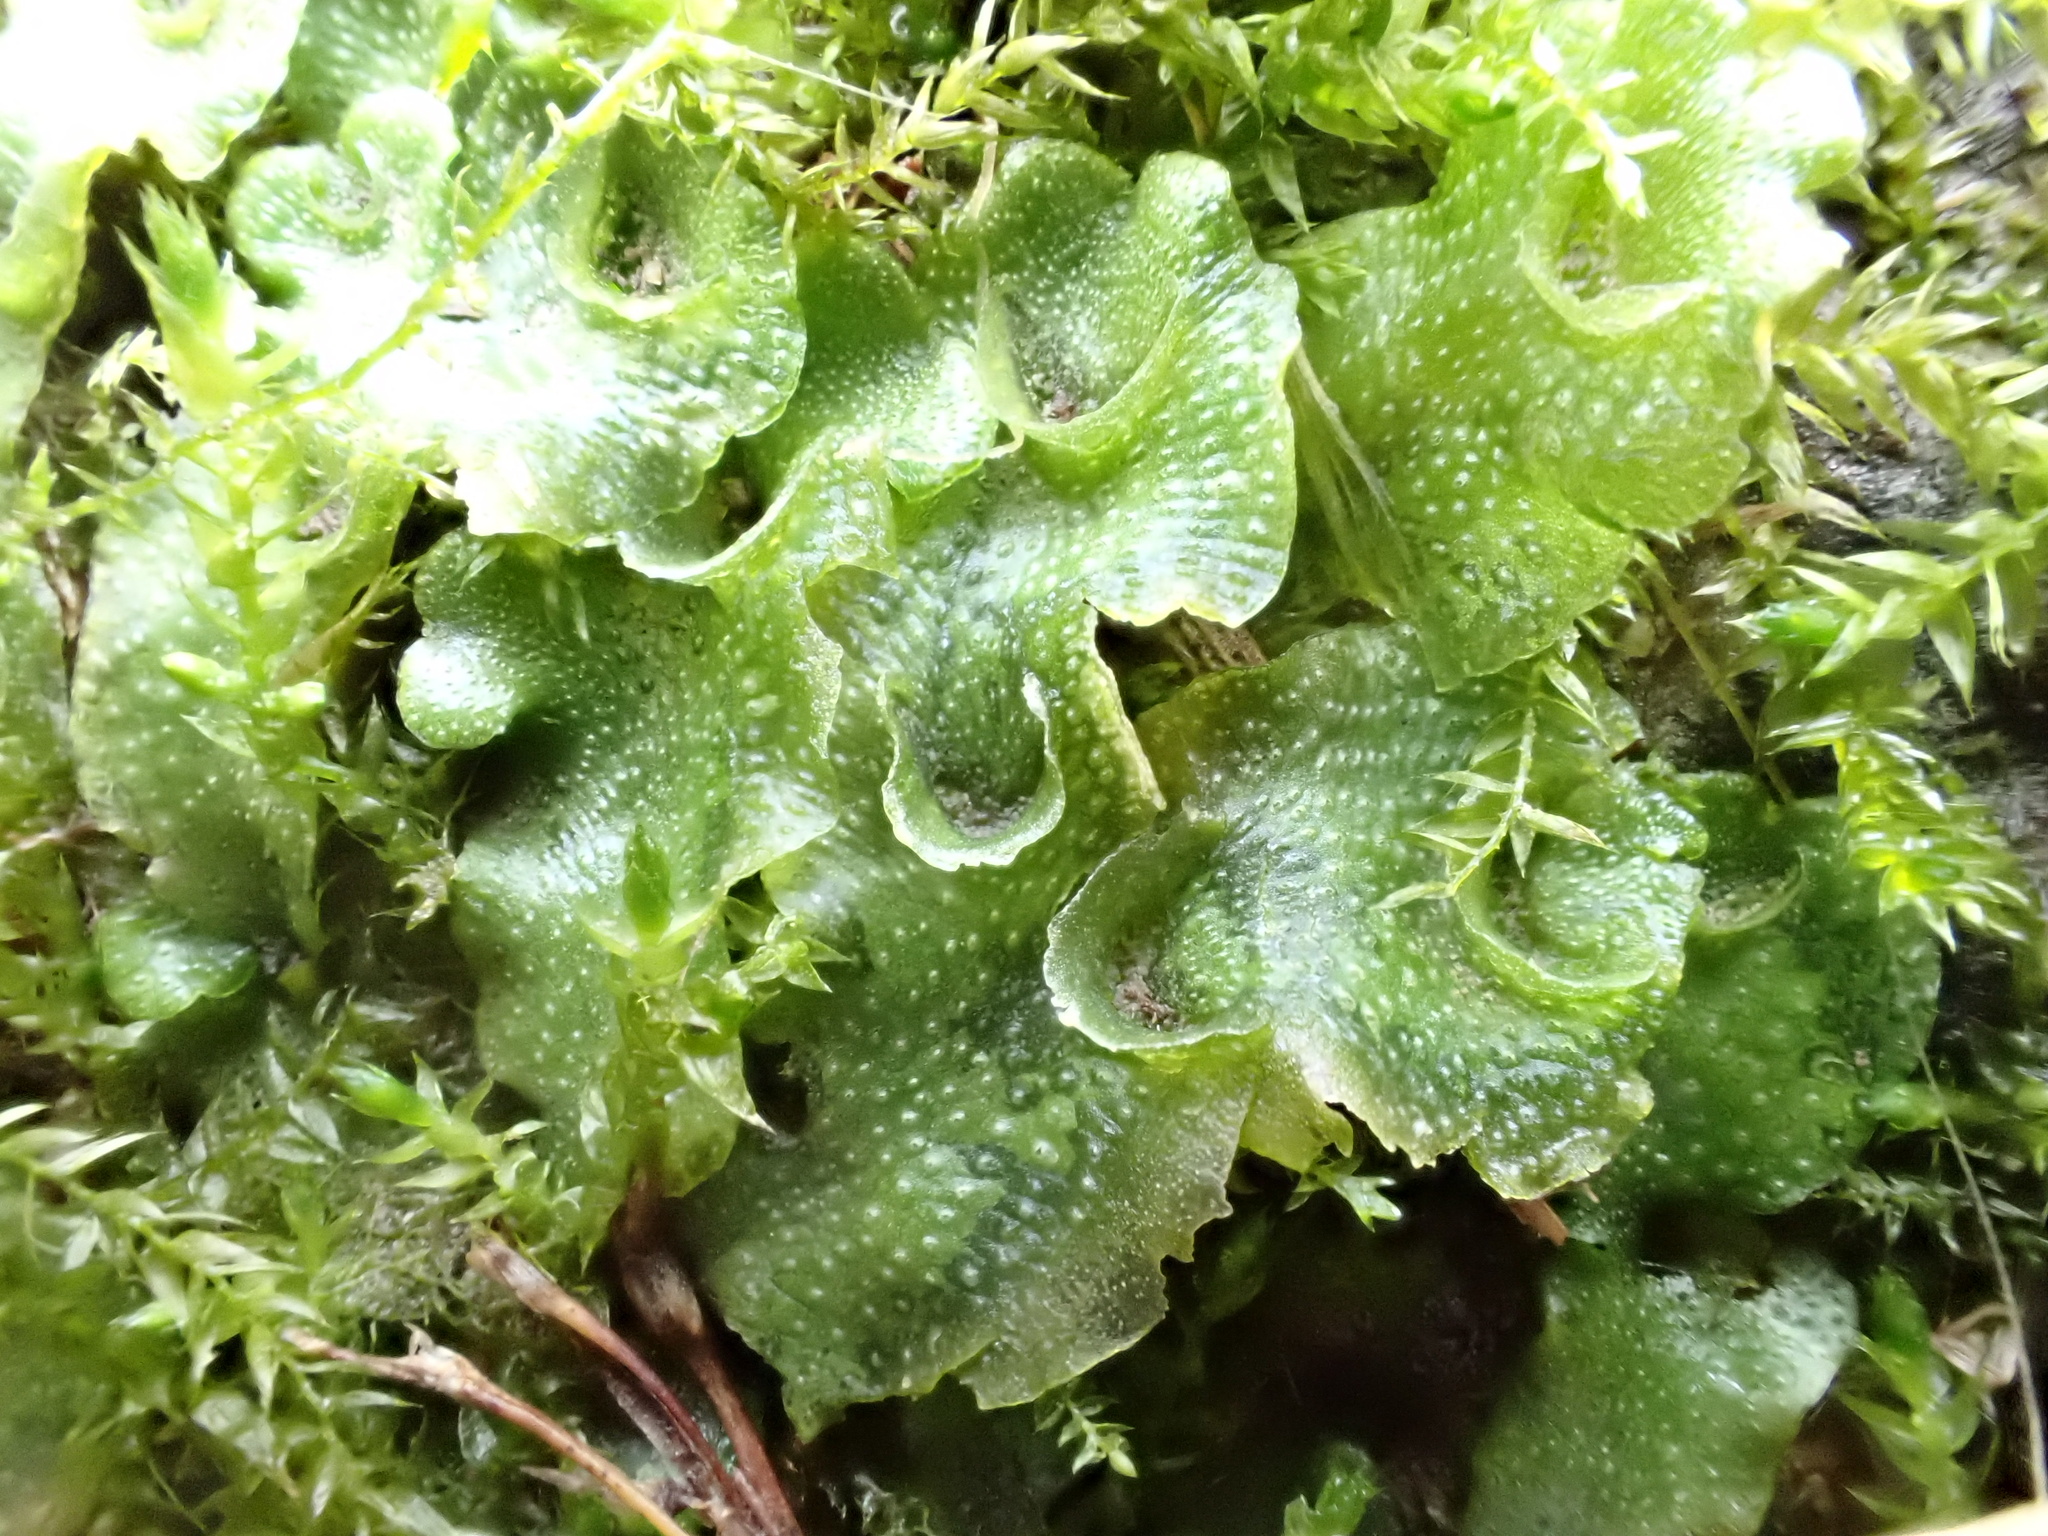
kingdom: Plantae
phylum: Marchantiophyta
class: Marchantiopsida
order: Lunulariales
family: Lunulariaceae
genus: Lunularia
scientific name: Lunularia cruciata
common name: Crescent-cup liverwort
